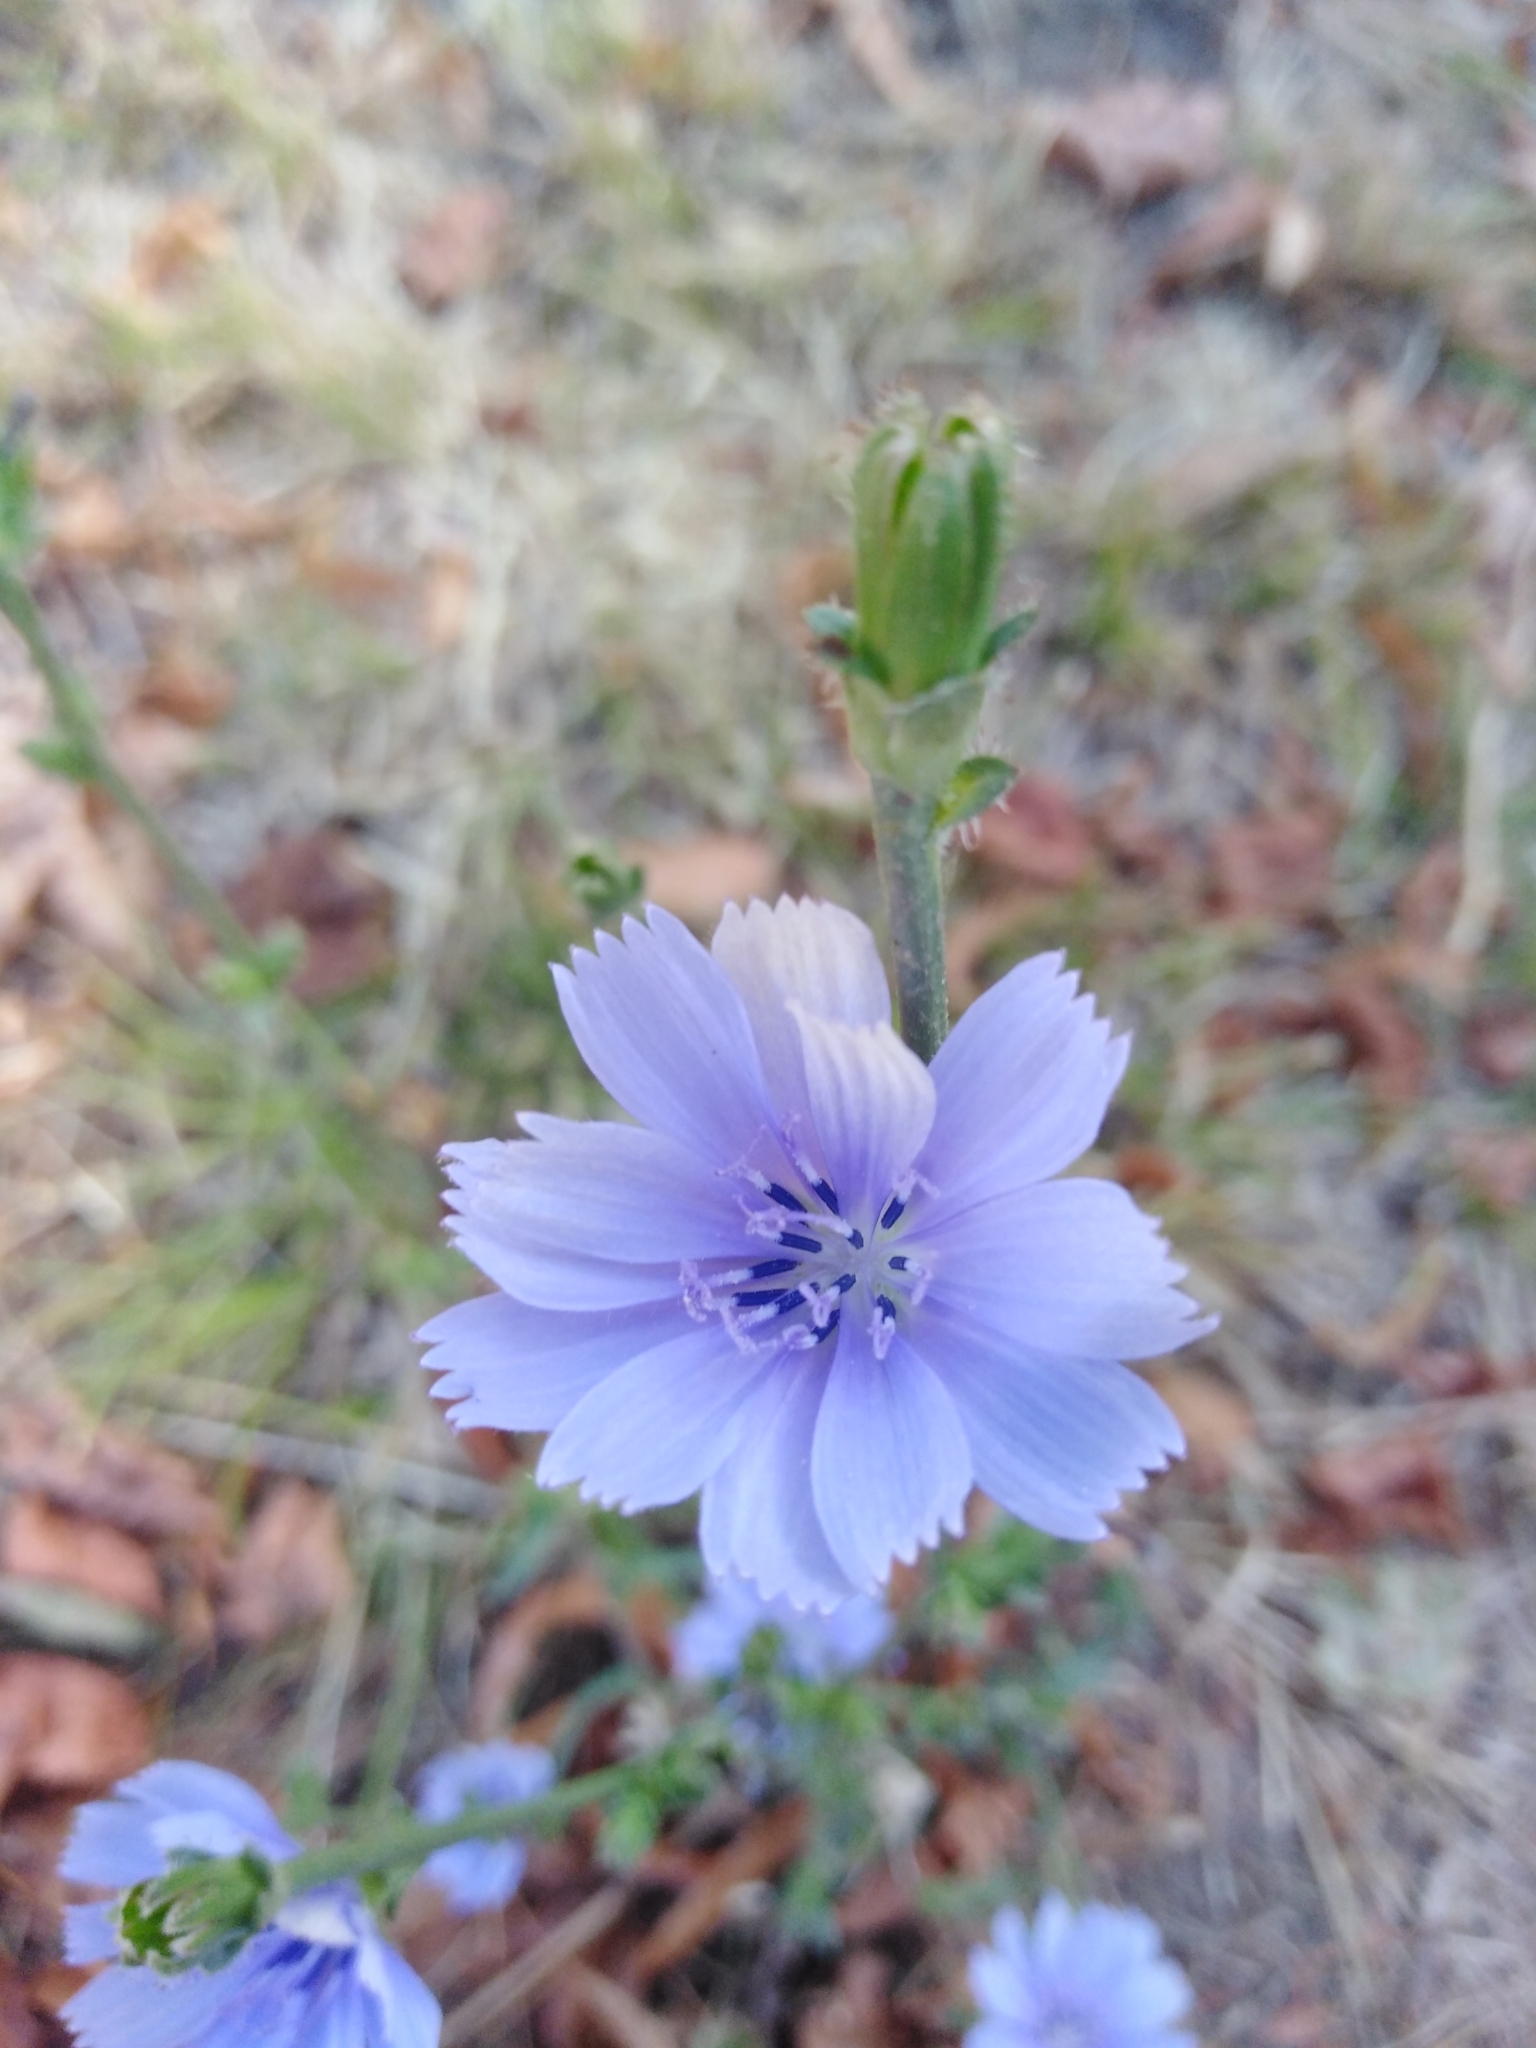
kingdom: Plantae
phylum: Tracheophyta
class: Magnoliopsida
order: Asterales
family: Asteraceae
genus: Cichorium
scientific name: Cichorium intybus
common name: Chicory
